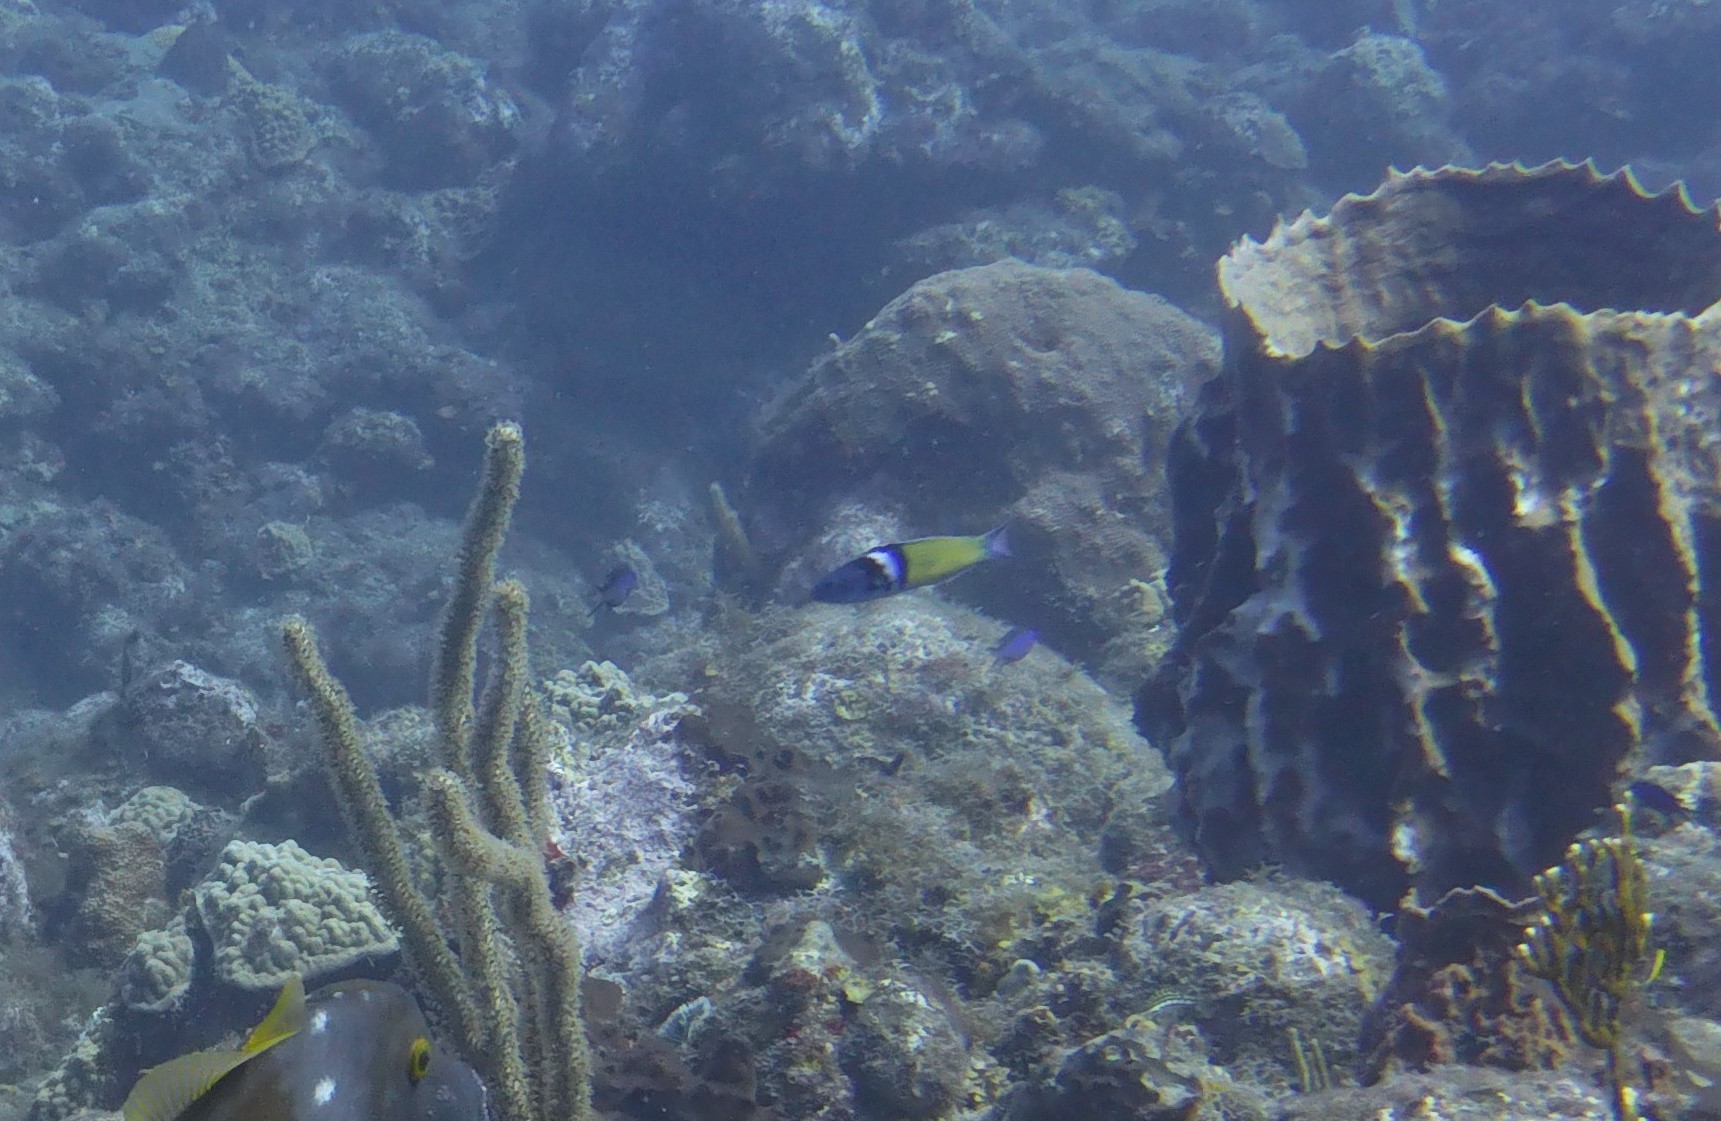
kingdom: Animalia
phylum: Chordata
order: Perciformes
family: Labridae
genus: Thalassoma
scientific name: Thalassoma bifasciatum
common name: Bluehead wrasse
